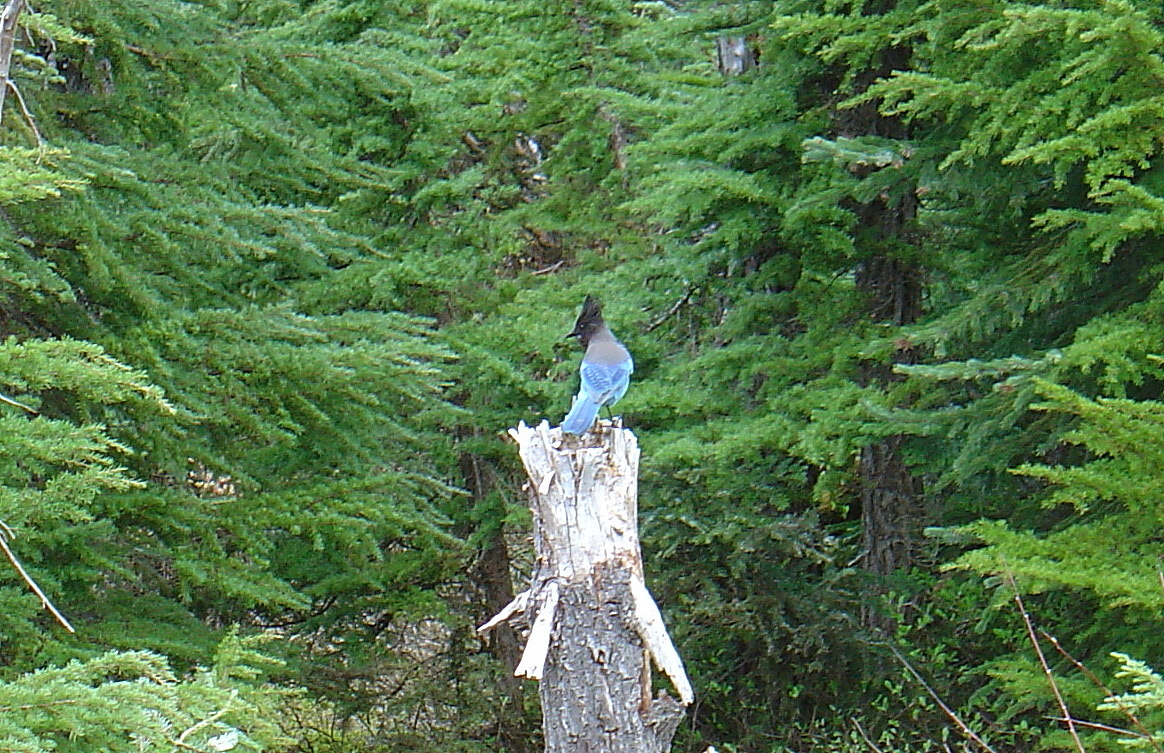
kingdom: Animalia
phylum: Chordata
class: Aves
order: Passeriformes
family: Corvidae
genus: Cyanocitta
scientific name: Cyanocitta stelleri
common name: Steller's jay
